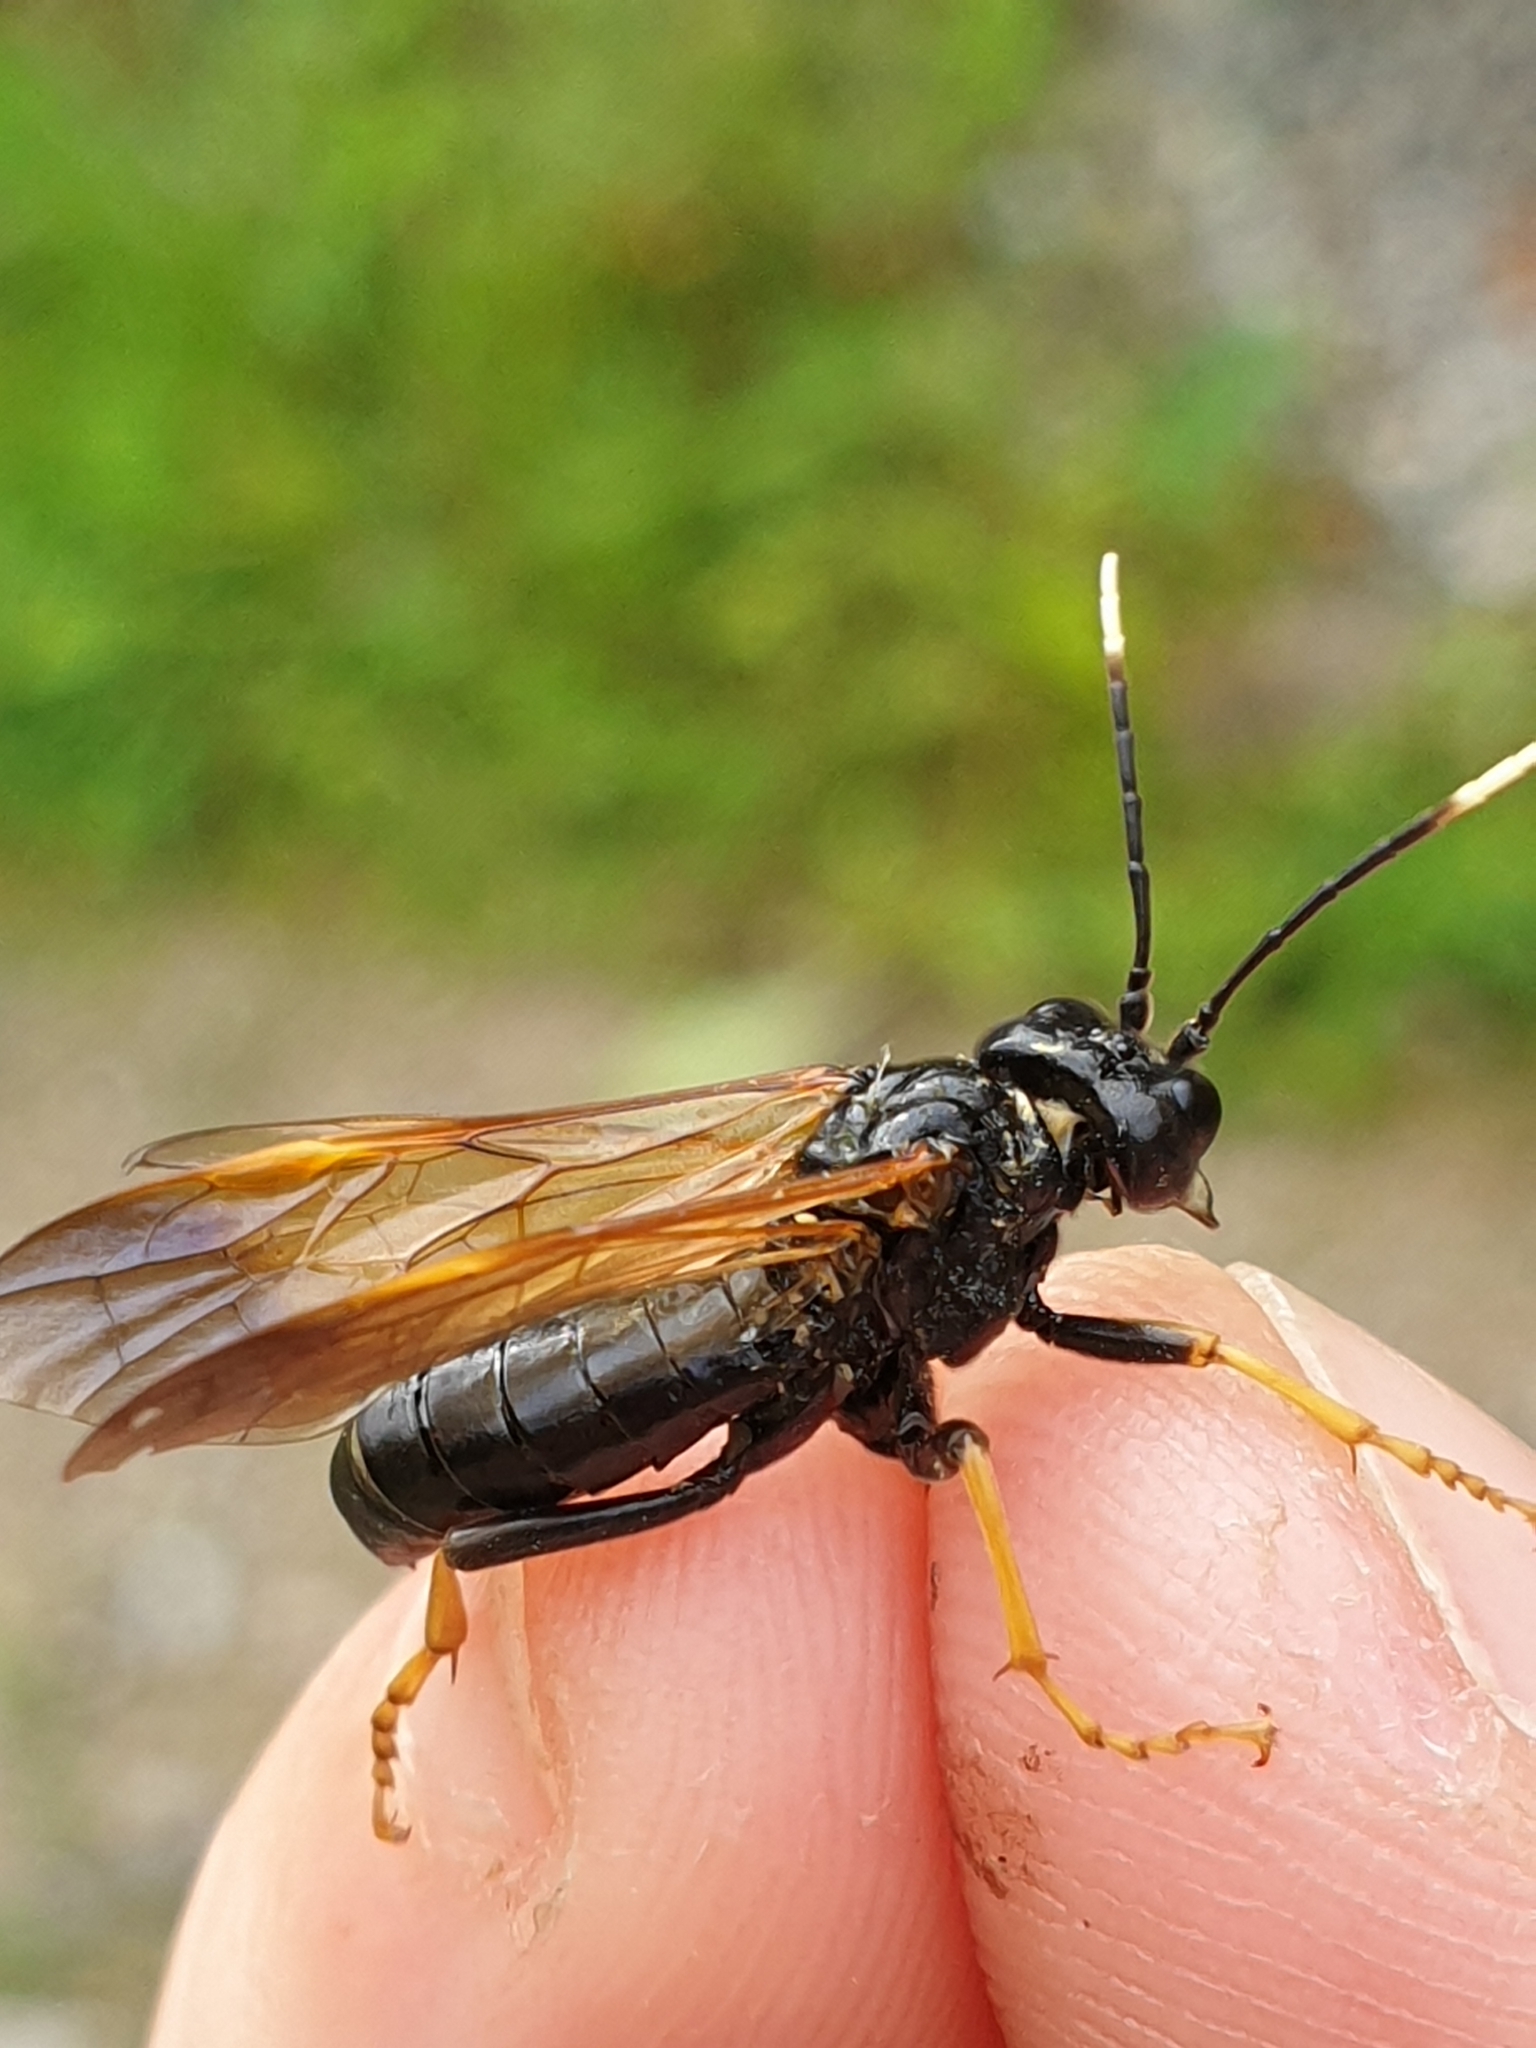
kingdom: Animalia
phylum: Arthropoda
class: Insecta
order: Hymenoptera
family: Tenthredinidae
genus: Tenthredo
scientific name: Tenthredo crassa
